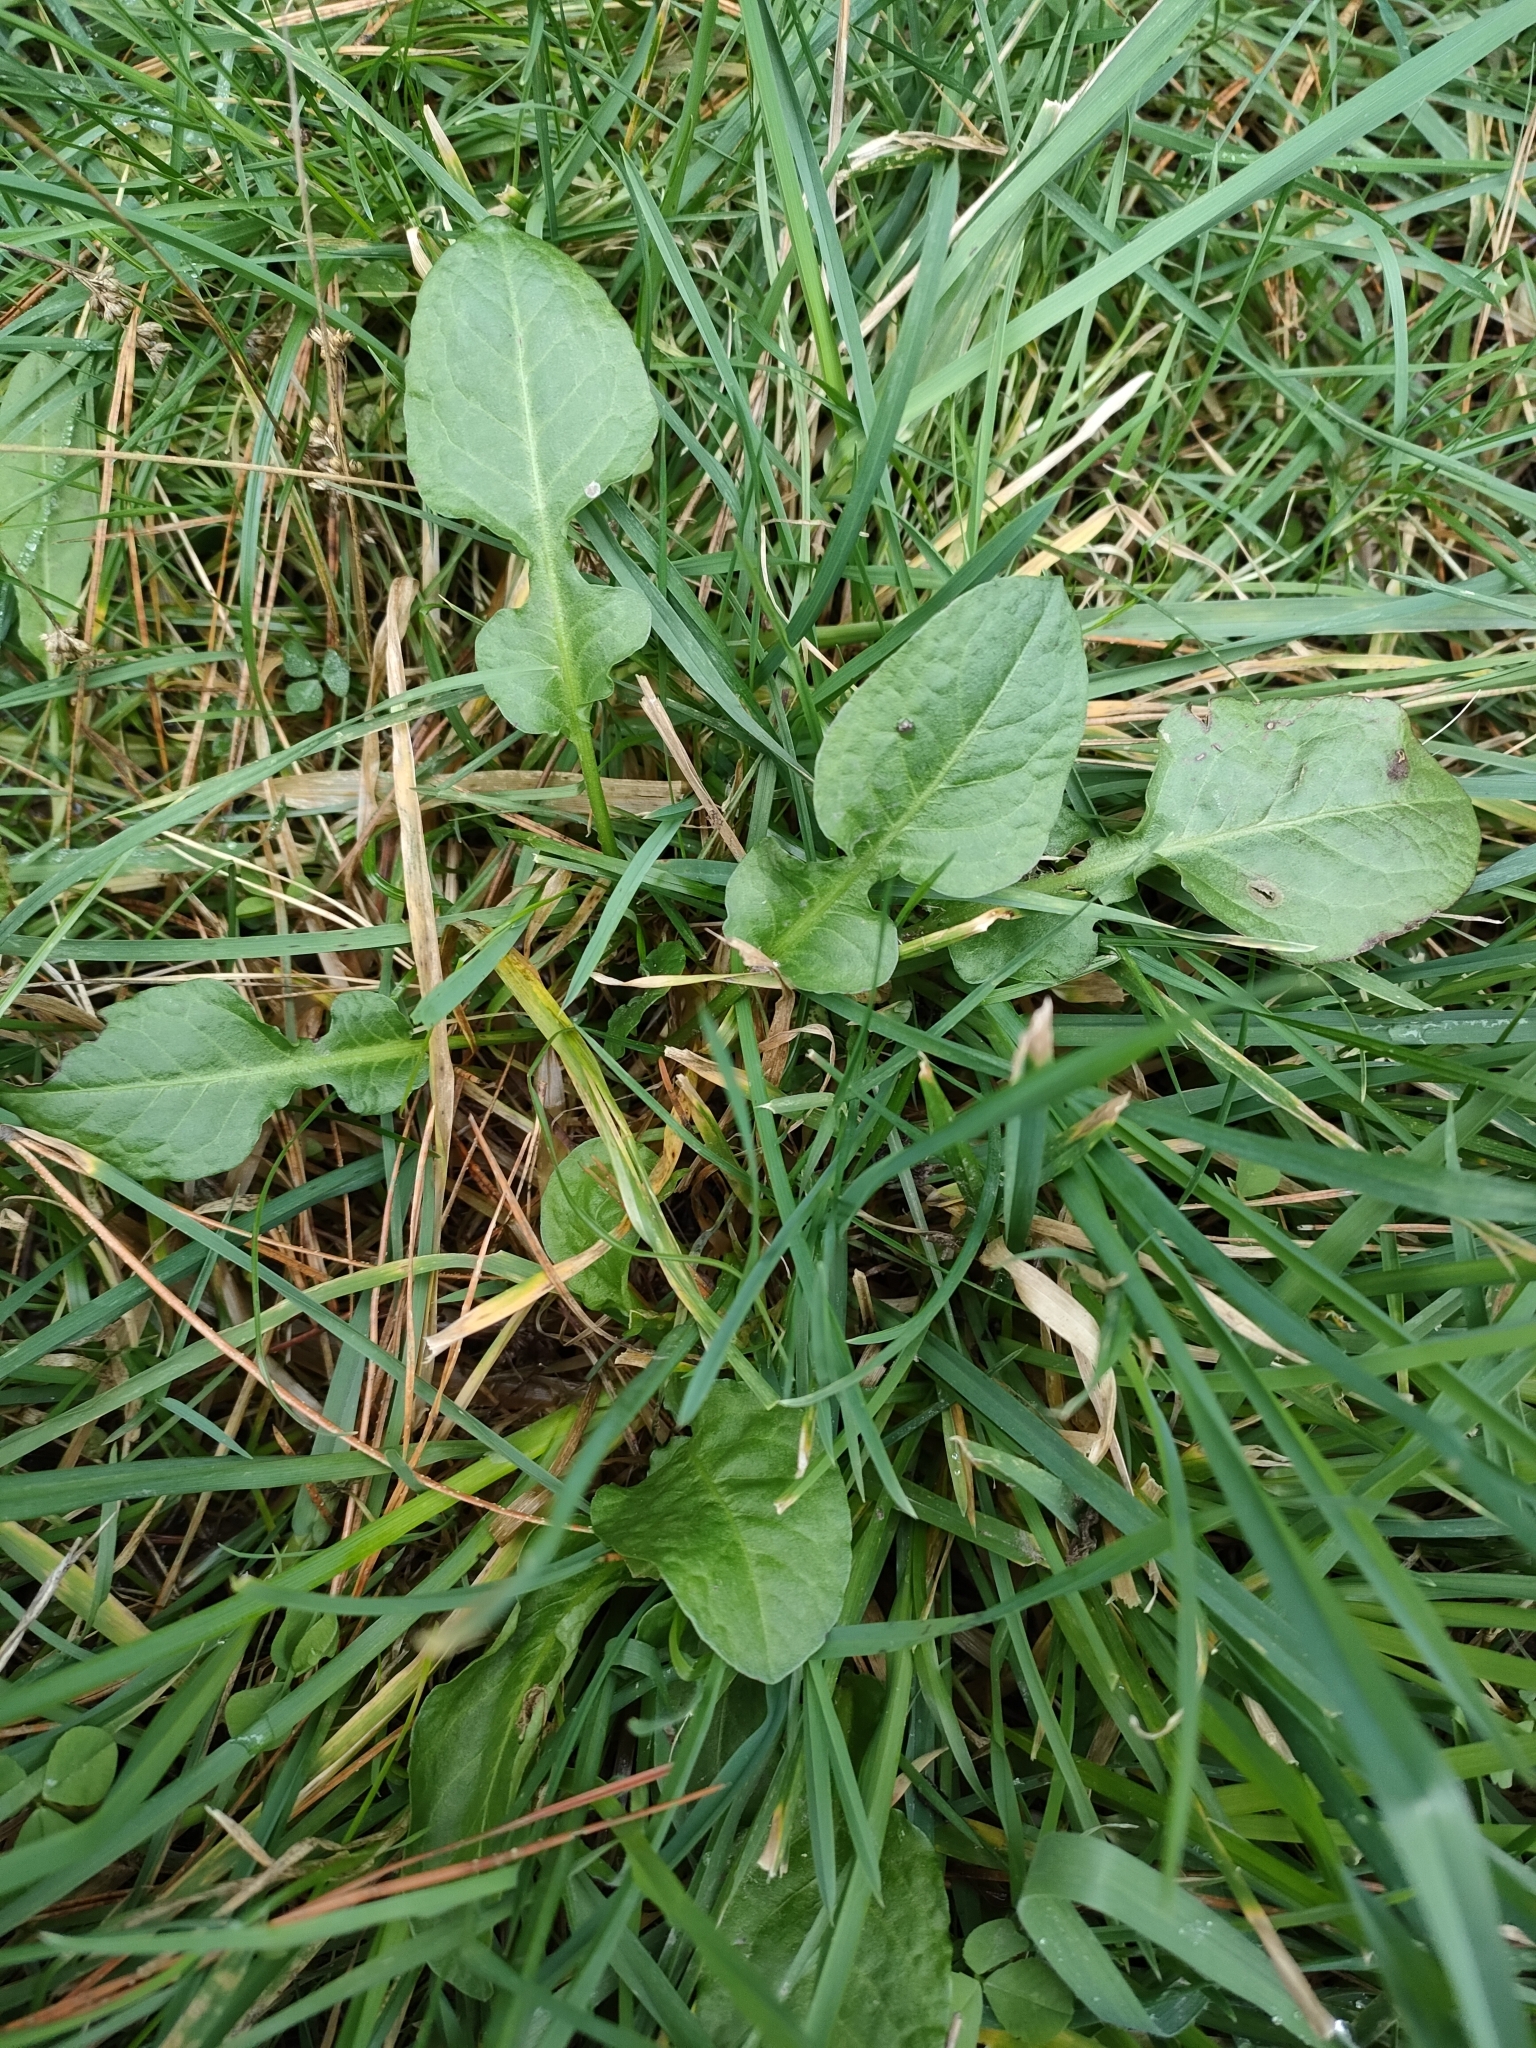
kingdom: Plantae
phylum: Tracheophyta
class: Magnoliopsida
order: Caryophyllales
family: Polygonaceae
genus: Rumex
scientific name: Rumex pulcher
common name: Fiddle dock
